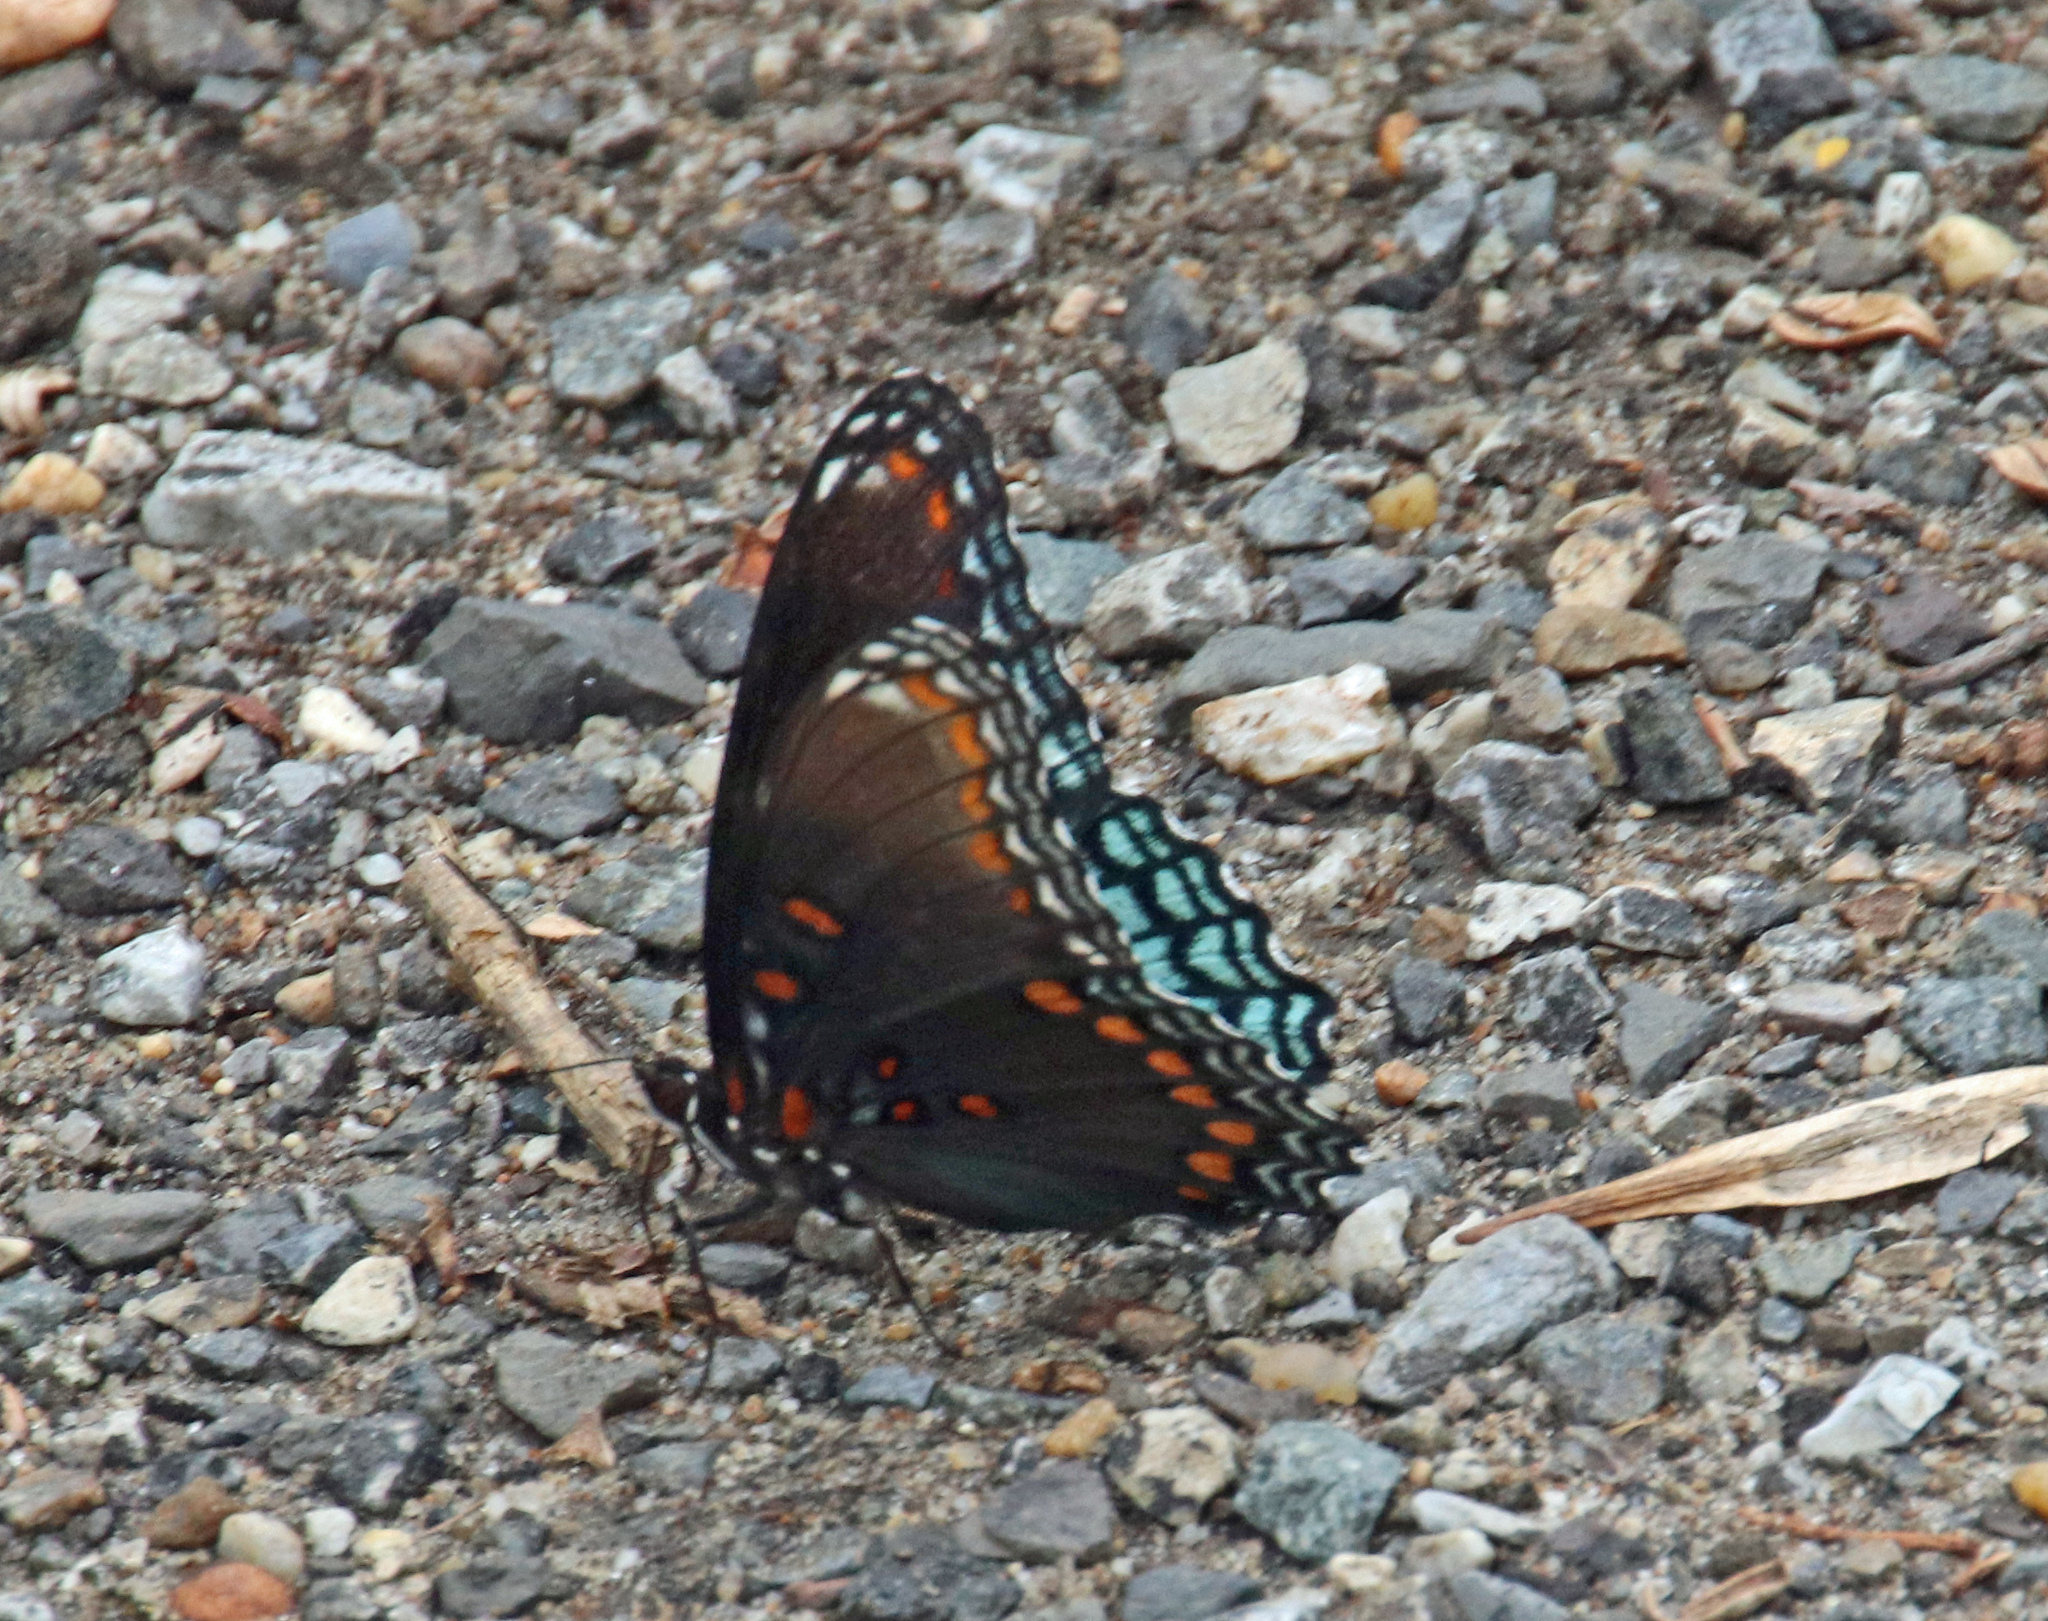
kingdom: Animalia
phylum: Arthropoda
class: Insecta
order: Lepidoptera
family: Nymphalidae
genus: Limenitis
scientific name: Limenitis astyanax
